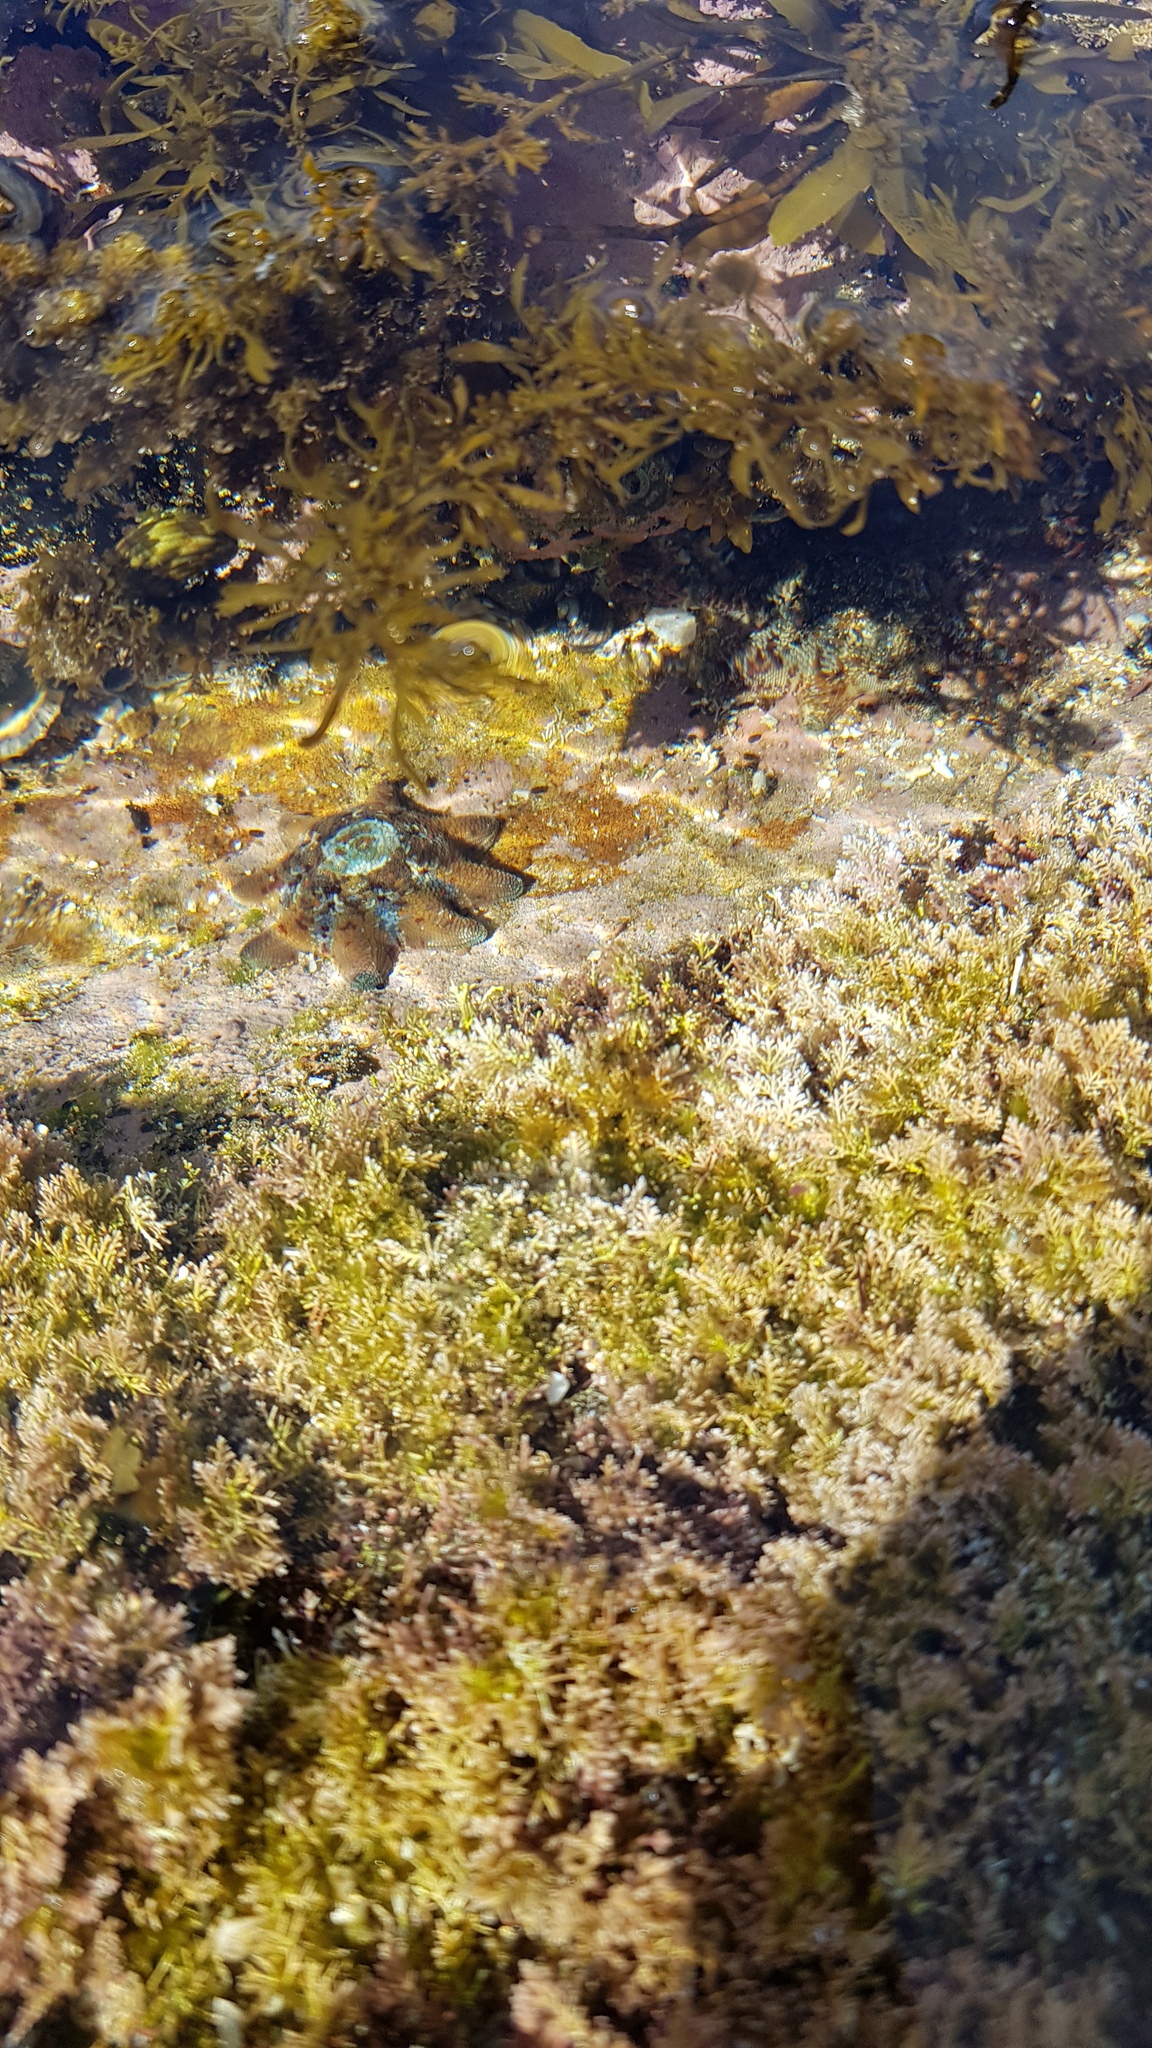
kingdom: Animalia
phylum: Echinodermata
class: Asteroidea
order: Valvatida
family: Asterinidae
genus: Meridiastra
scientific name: Meridiastra calcar
